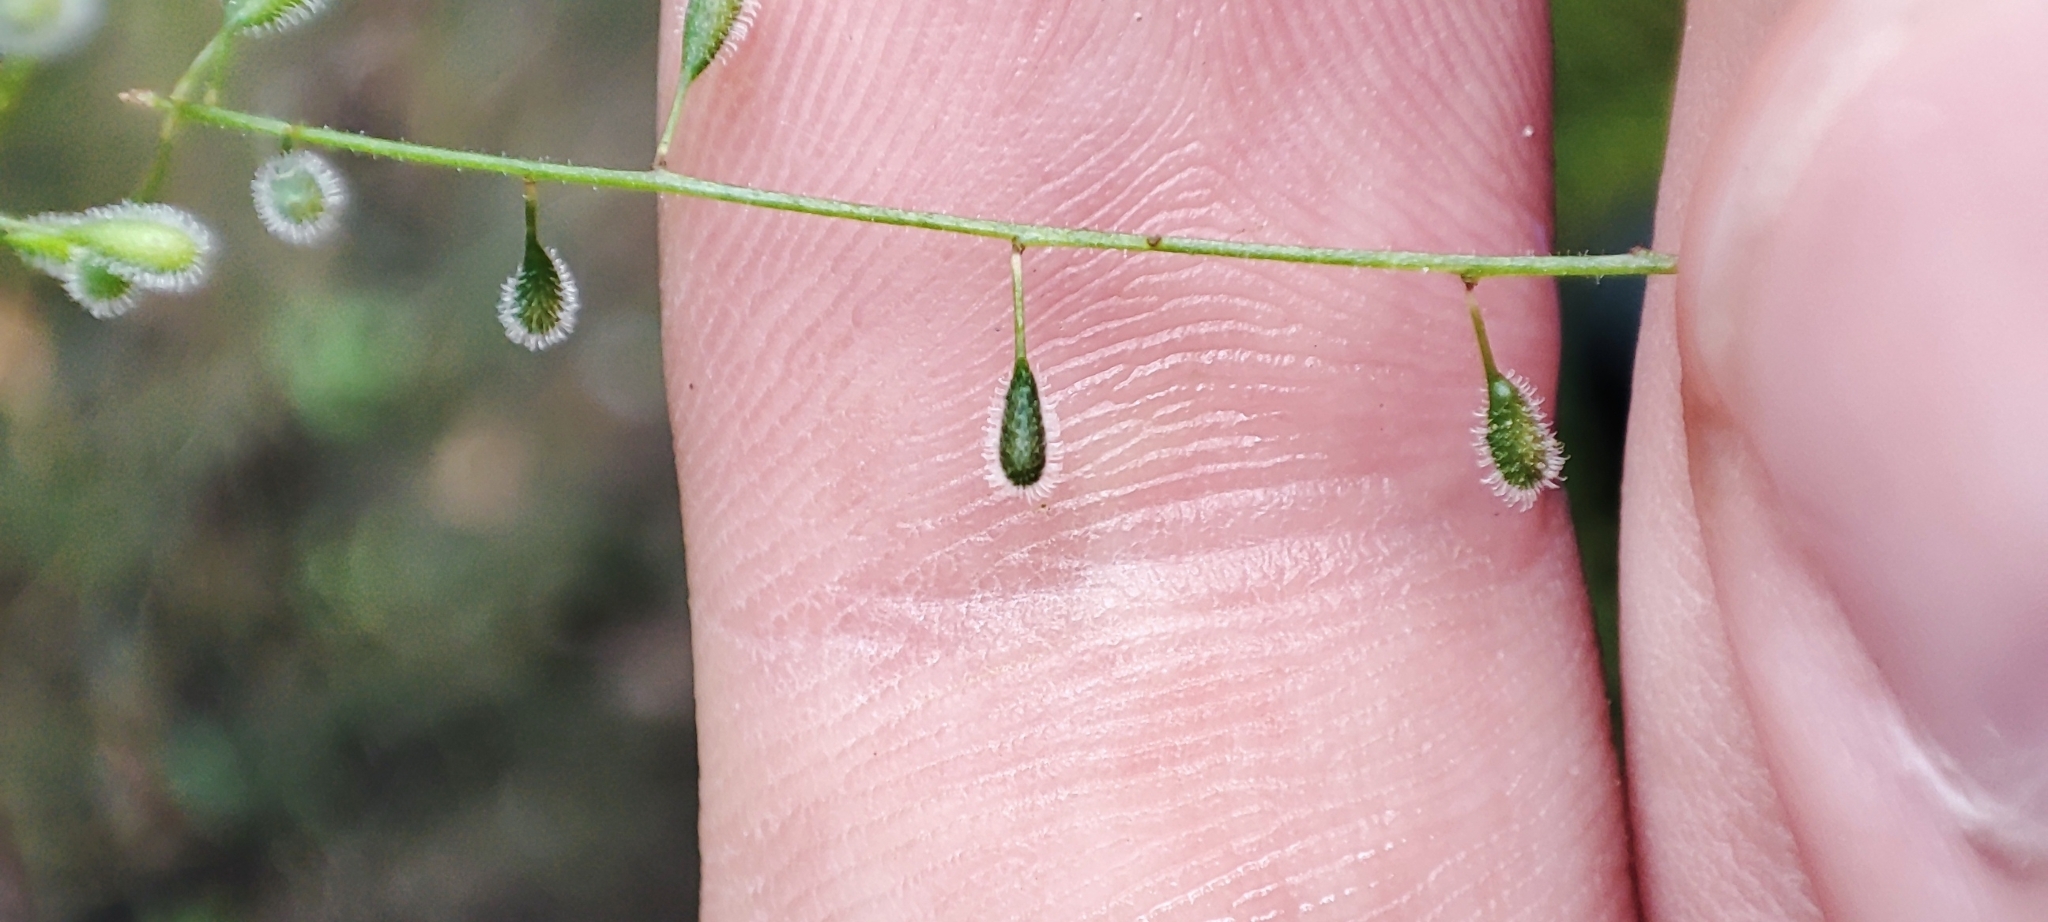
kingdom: Plantae
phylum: Tracheophyta
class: Magnoliopsida
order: Myrtales
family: Onagraceae
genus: Circaea
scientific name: Circaea alpina
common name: Alpine enchanter's-nightshade
